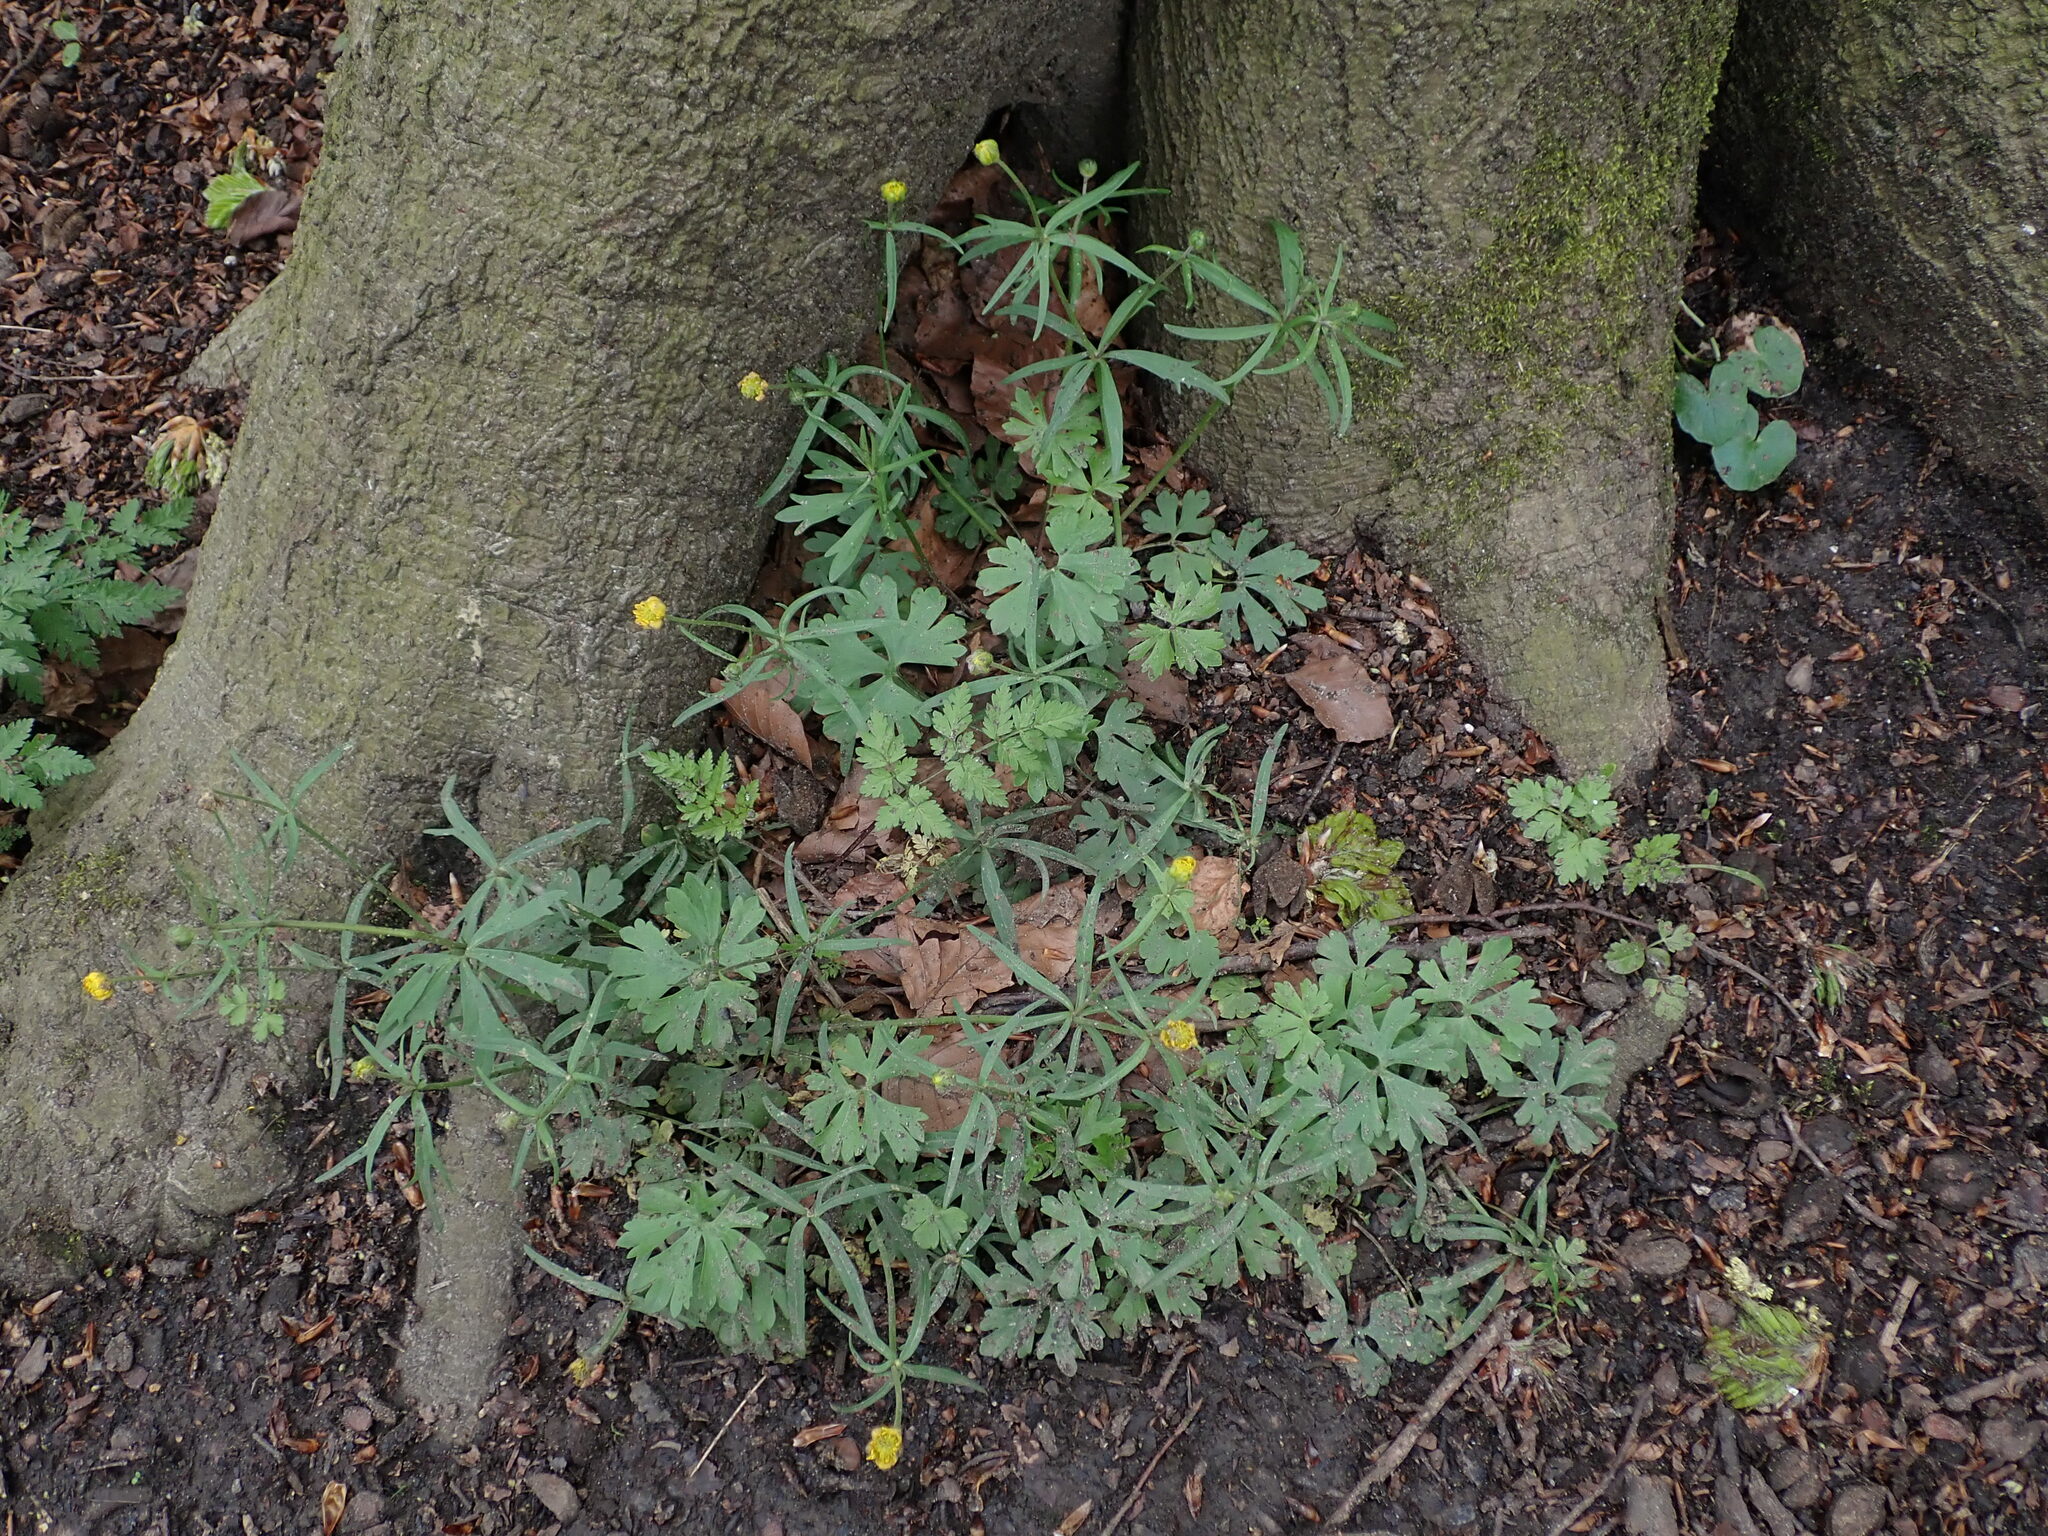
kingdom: Plantae
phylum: Tracheophyta
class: Magnoliopsida
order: Ranunculales
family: Ranunculaceae
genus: Ranunculus
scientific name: Ranunculus auricomus
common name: Goldilocks buttercup
